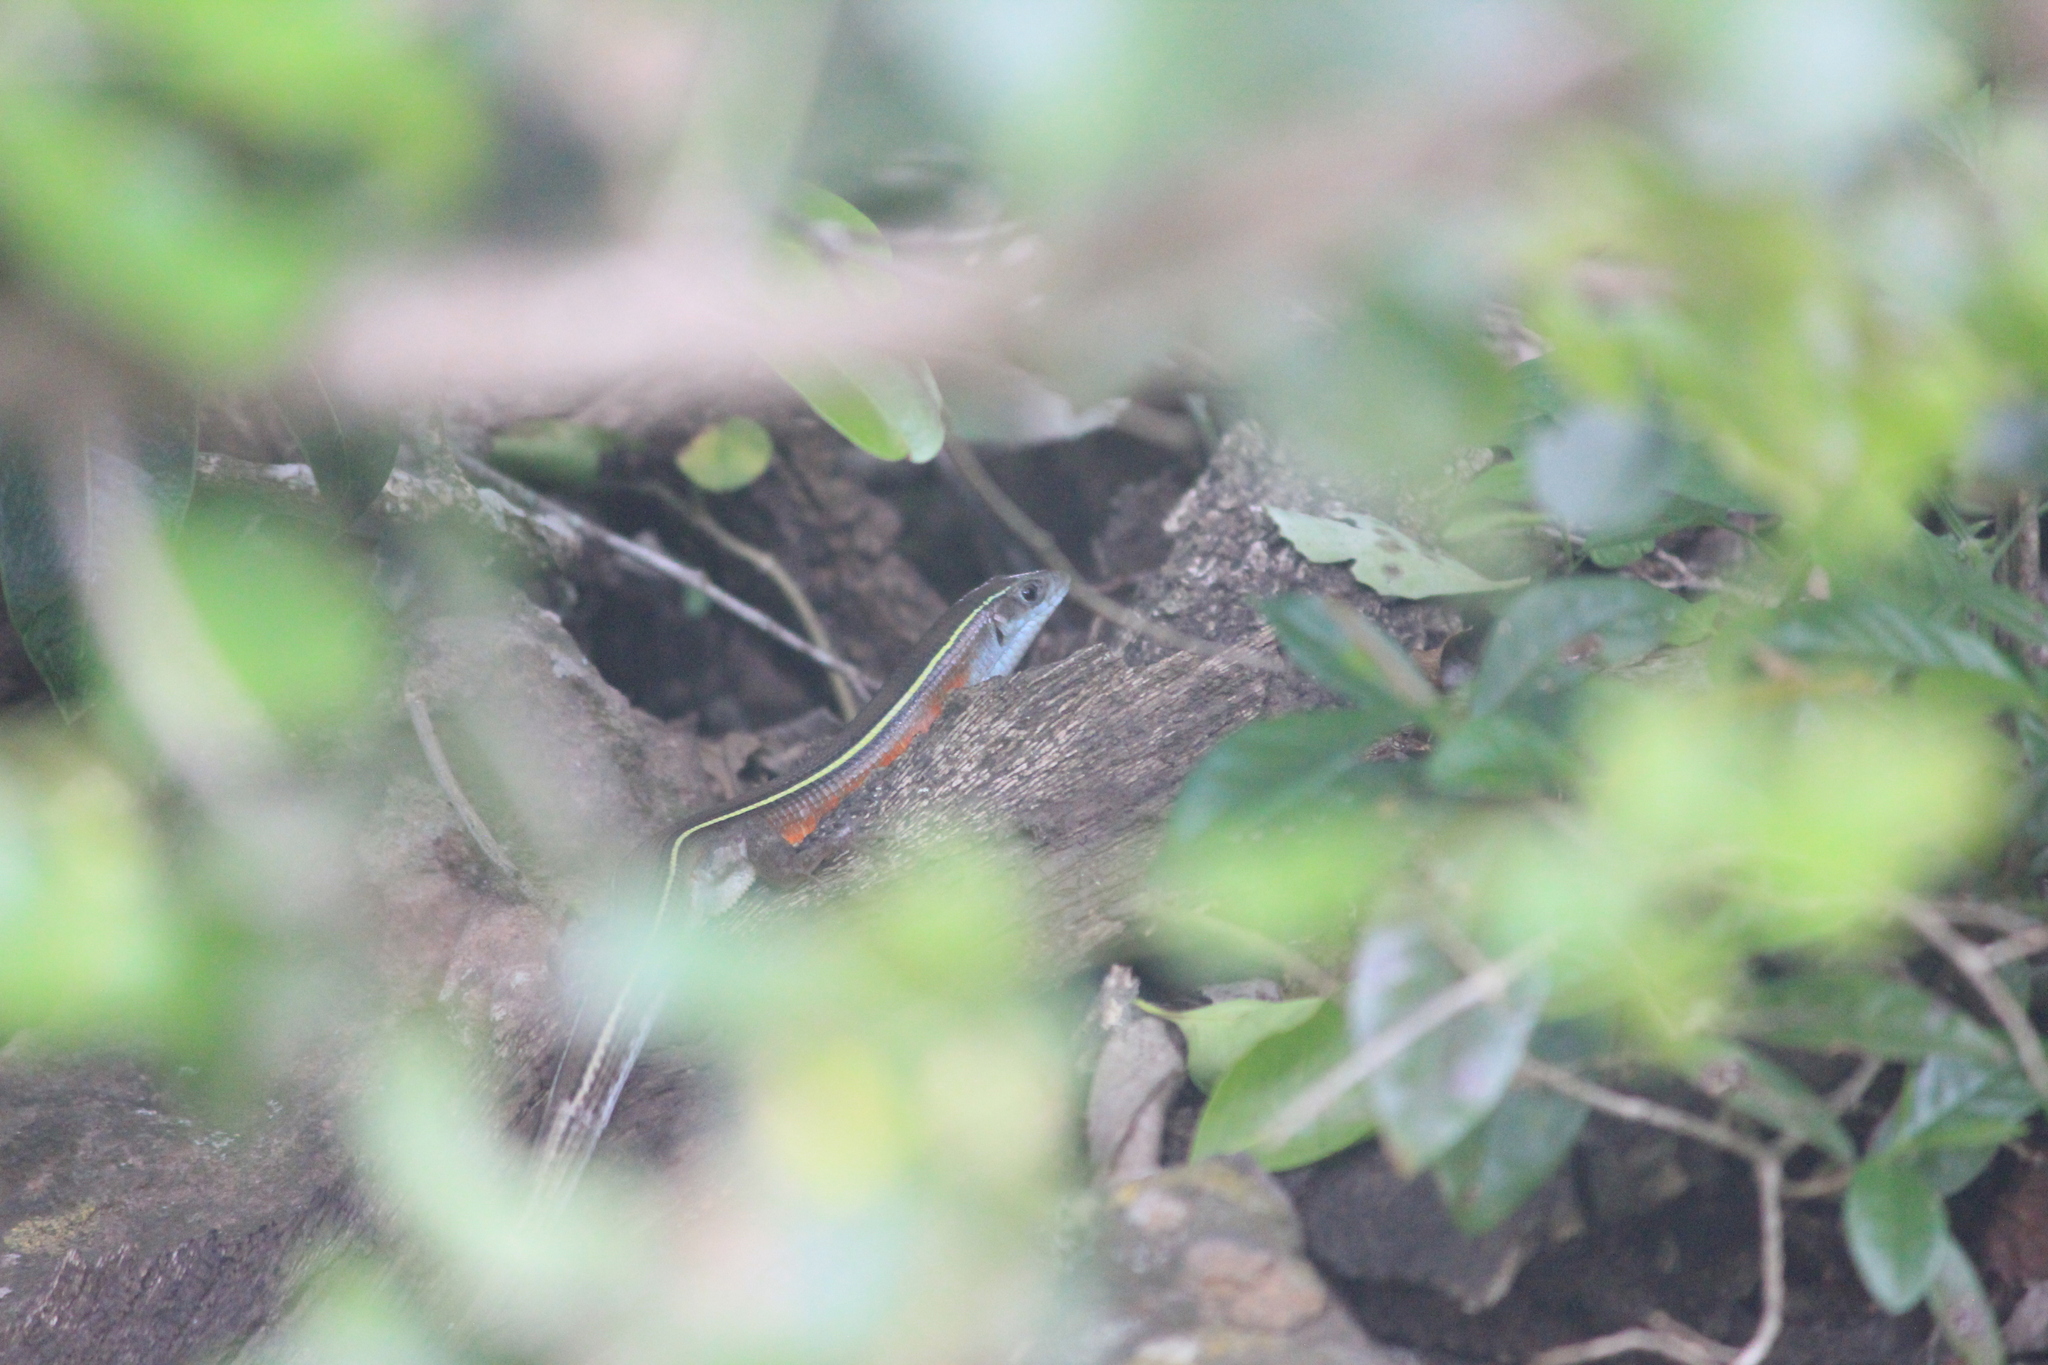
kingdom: Animalia
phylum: Chordata
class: Squamata
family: Gerrhosauridae
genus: Gerrhosaurus
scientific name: Gerrhosaurus flavigularis
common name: Yellow-throated plated lizard
